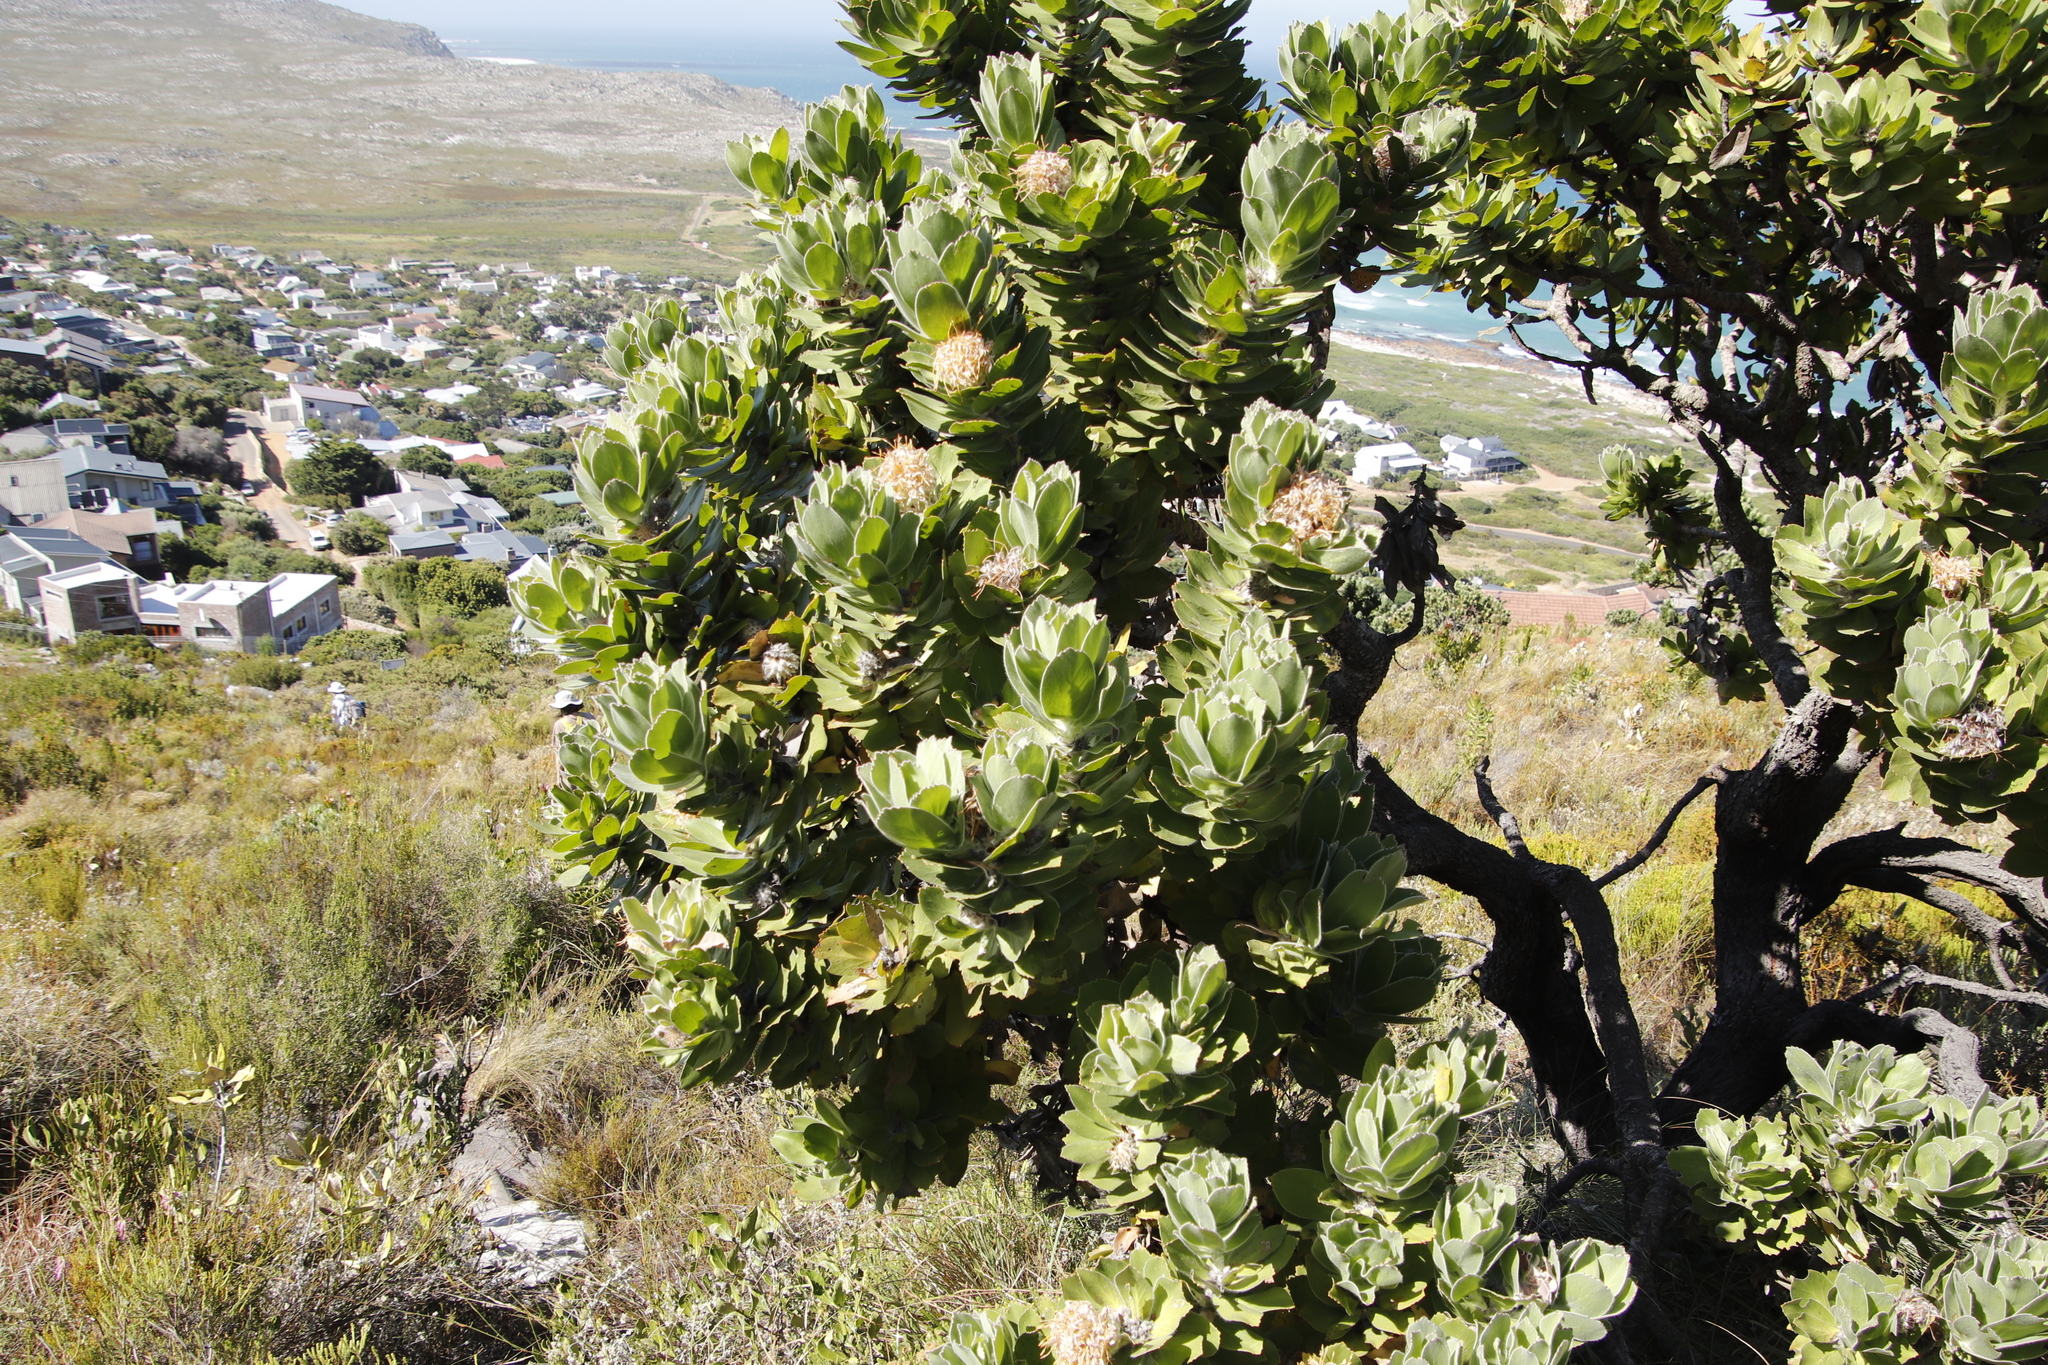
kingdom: Plantae
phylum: Tracheophyta
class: Magnoliopsida
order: Proteales
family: Proteaceae
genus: Leucospermum
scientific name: Leucospermum conocarpodendron
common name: Tree pincushion
